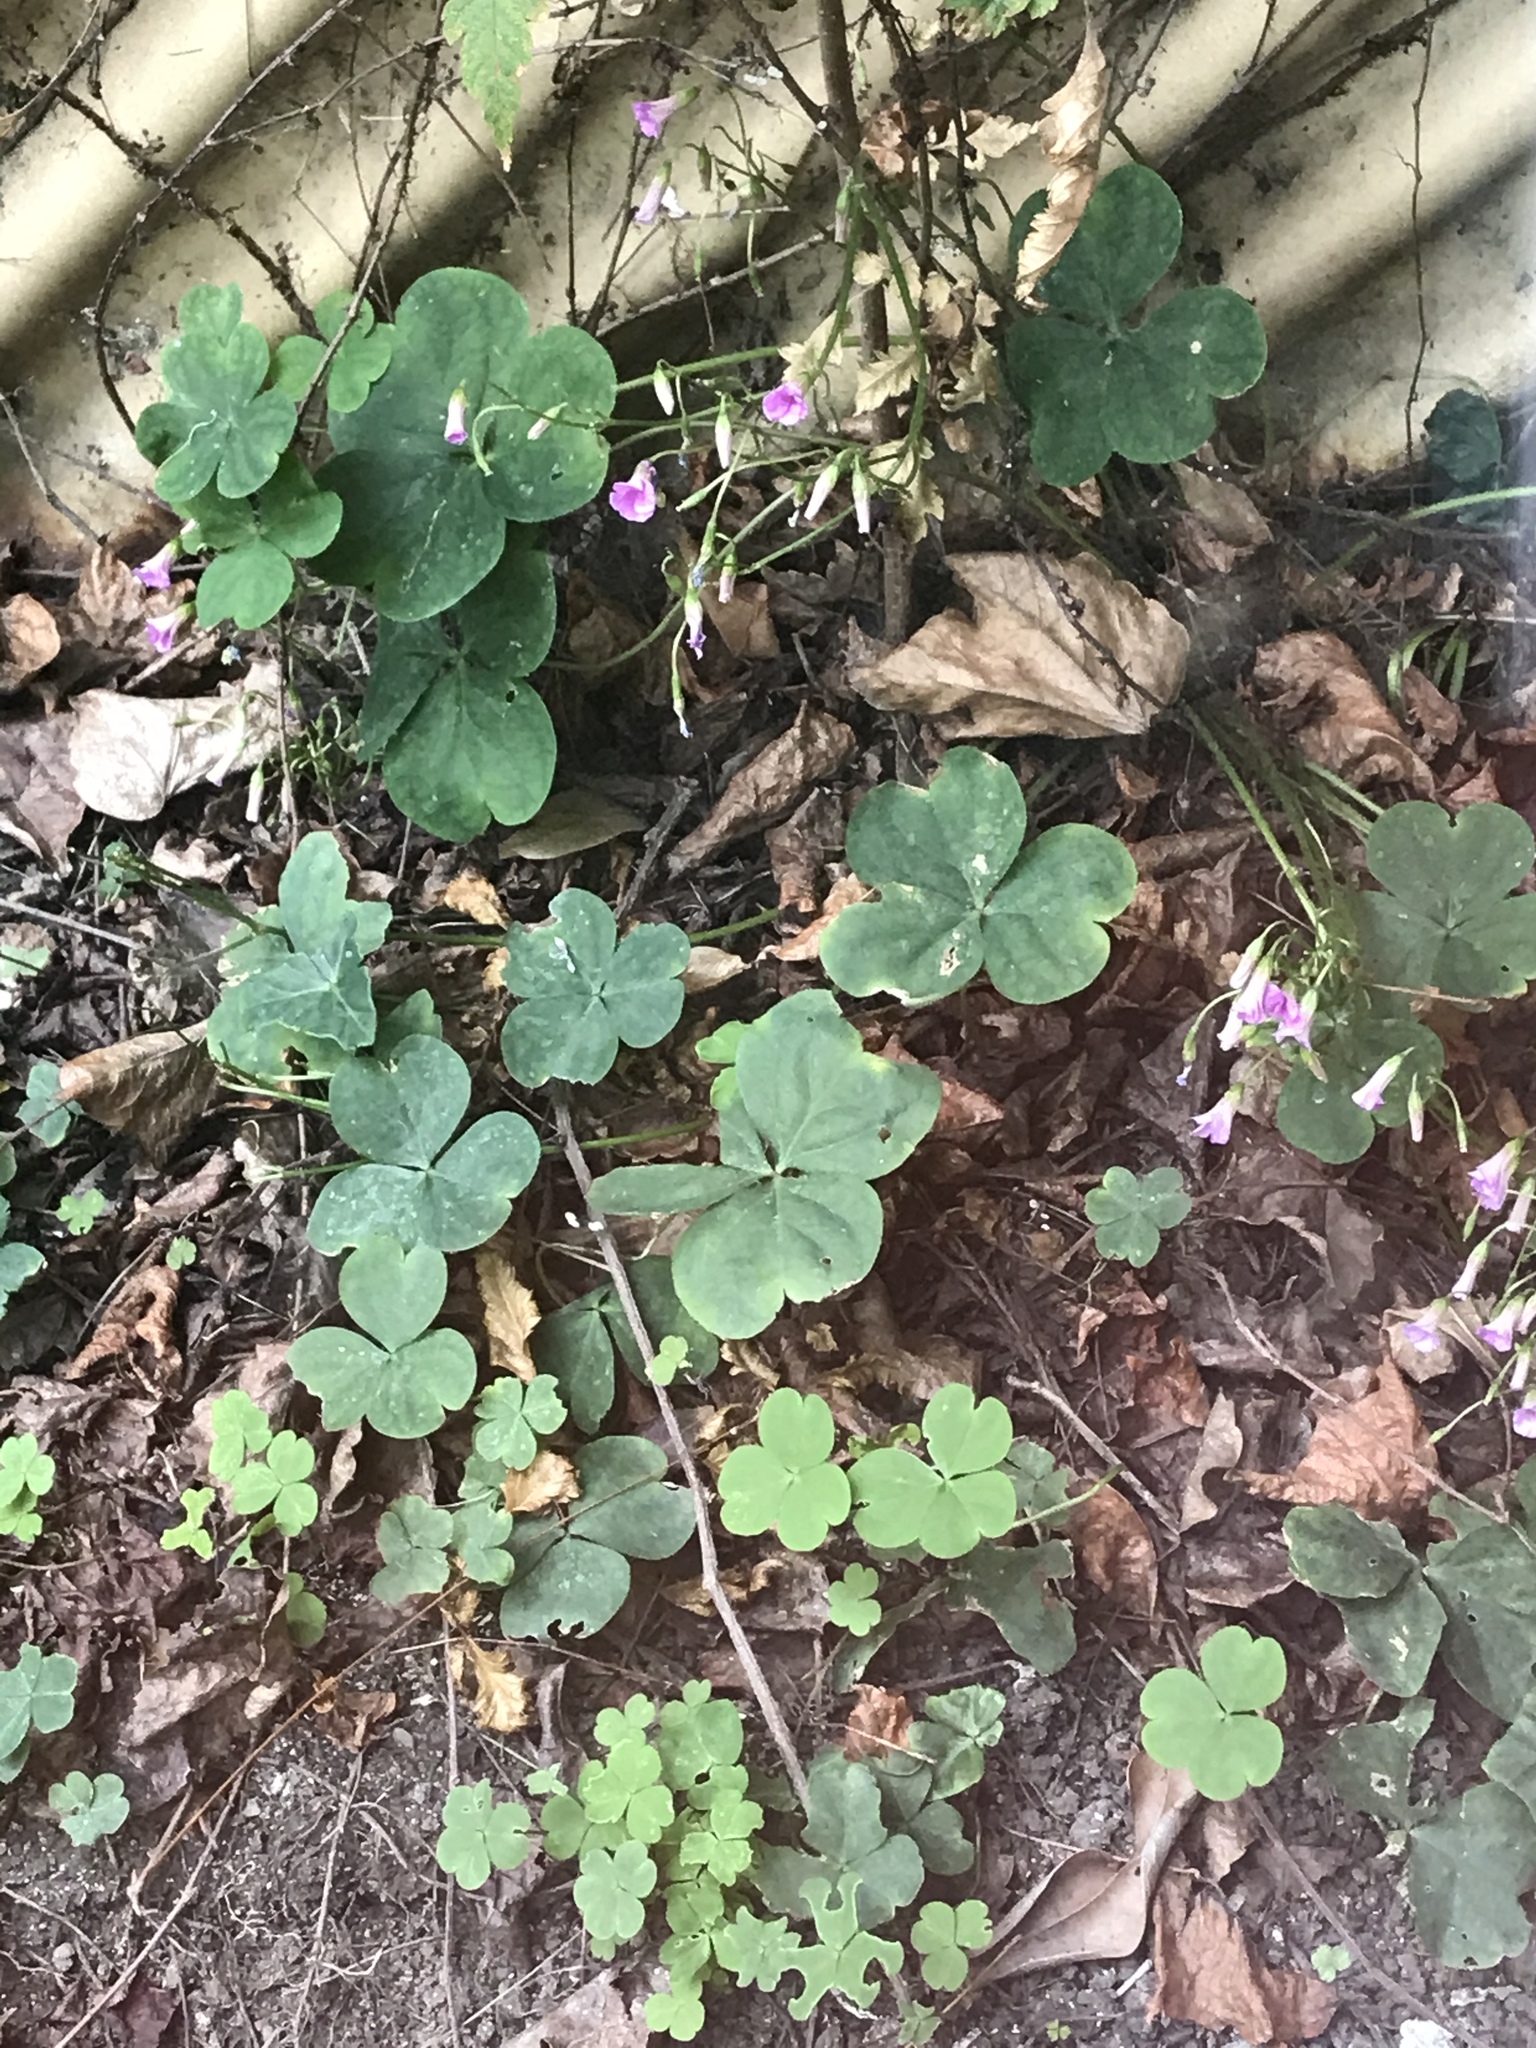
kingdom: Plantae
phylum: Tracheophyta
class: Magnoliopsida
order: Oxalidales
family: Oxalidaceae
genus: Oxalis
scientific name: Oxalis debilis
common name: Large-flowered pink-sorrel
